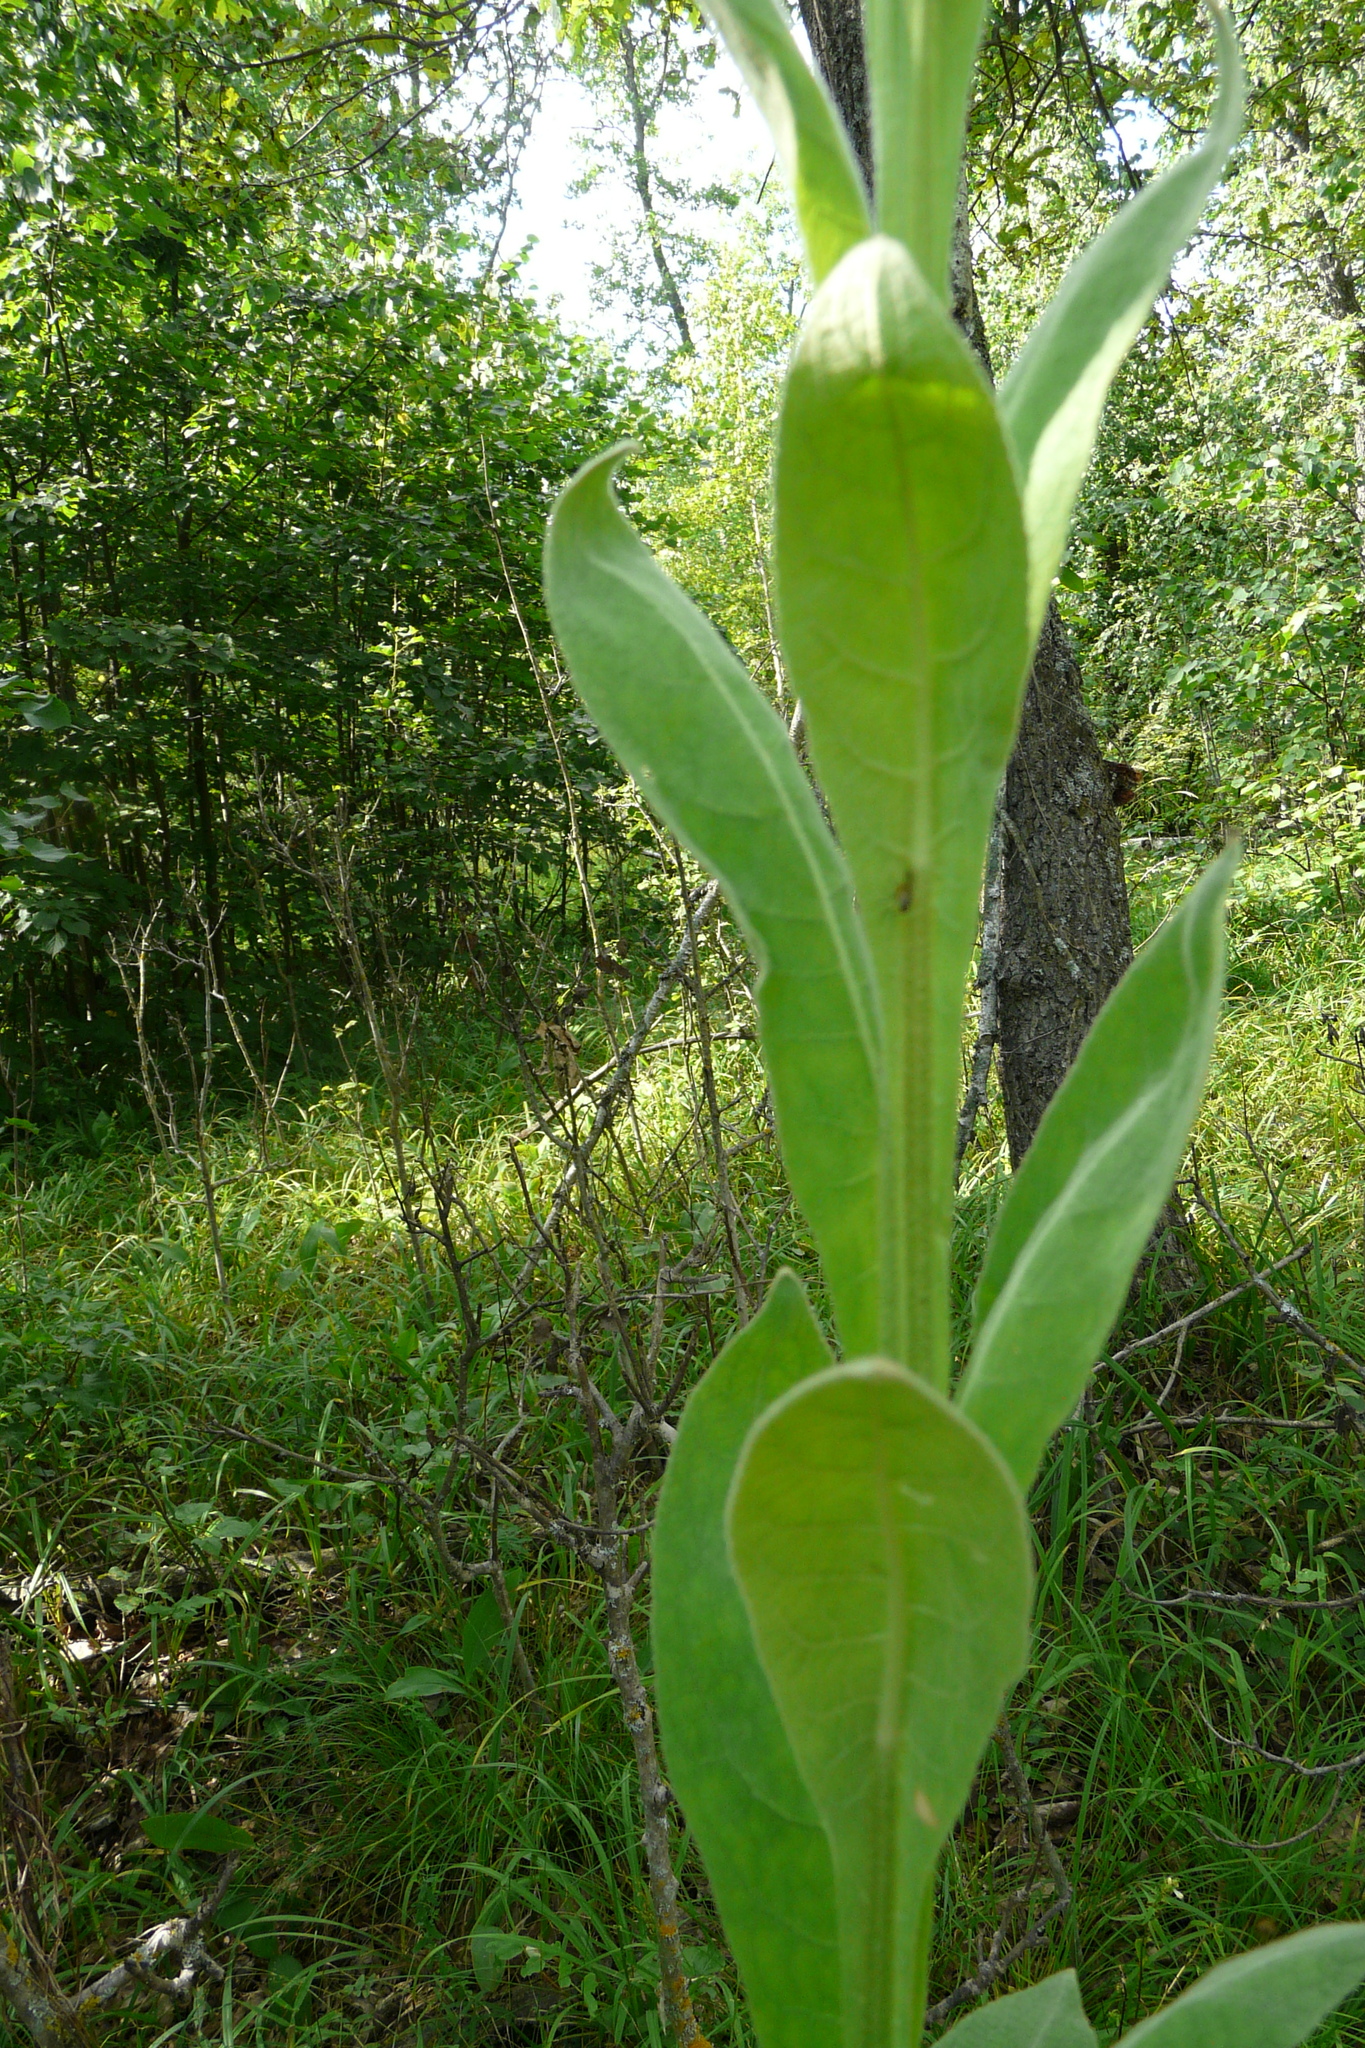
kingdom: Plantae
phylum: Tracheophyta
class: Magnoliopsida
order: Lamiales
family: Scrophulariaceae
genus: Verbascum
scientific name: Verbascum thapsus
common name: Common mullein
